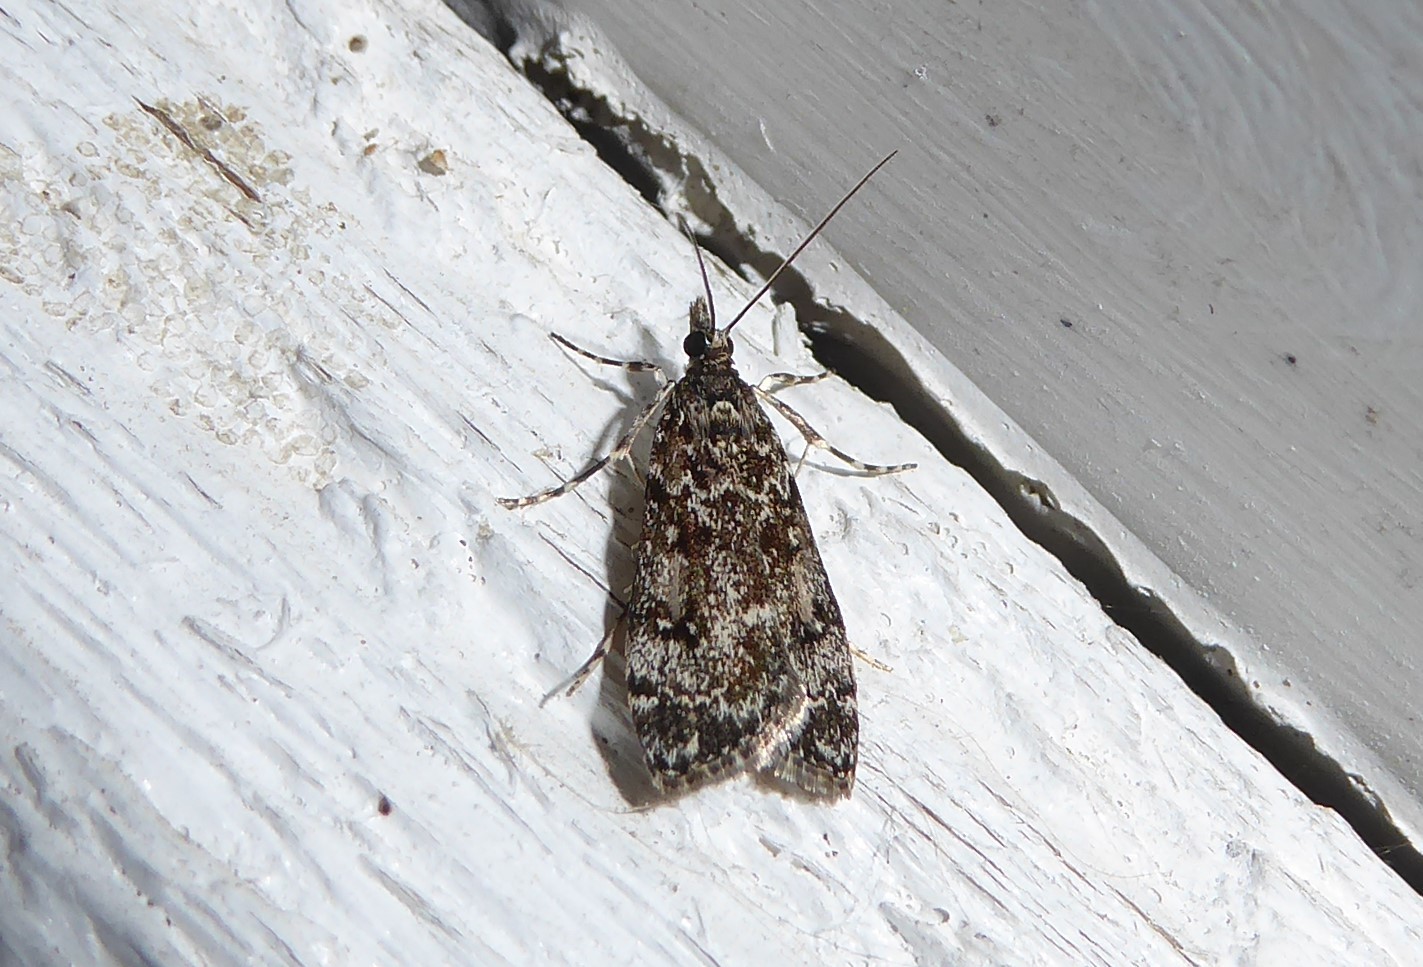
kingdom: Animalia
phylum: Arthropoda
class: Insecta
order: Lepidoptera
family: Crambidae
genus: Eudonia
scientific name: Eudonia philerga
